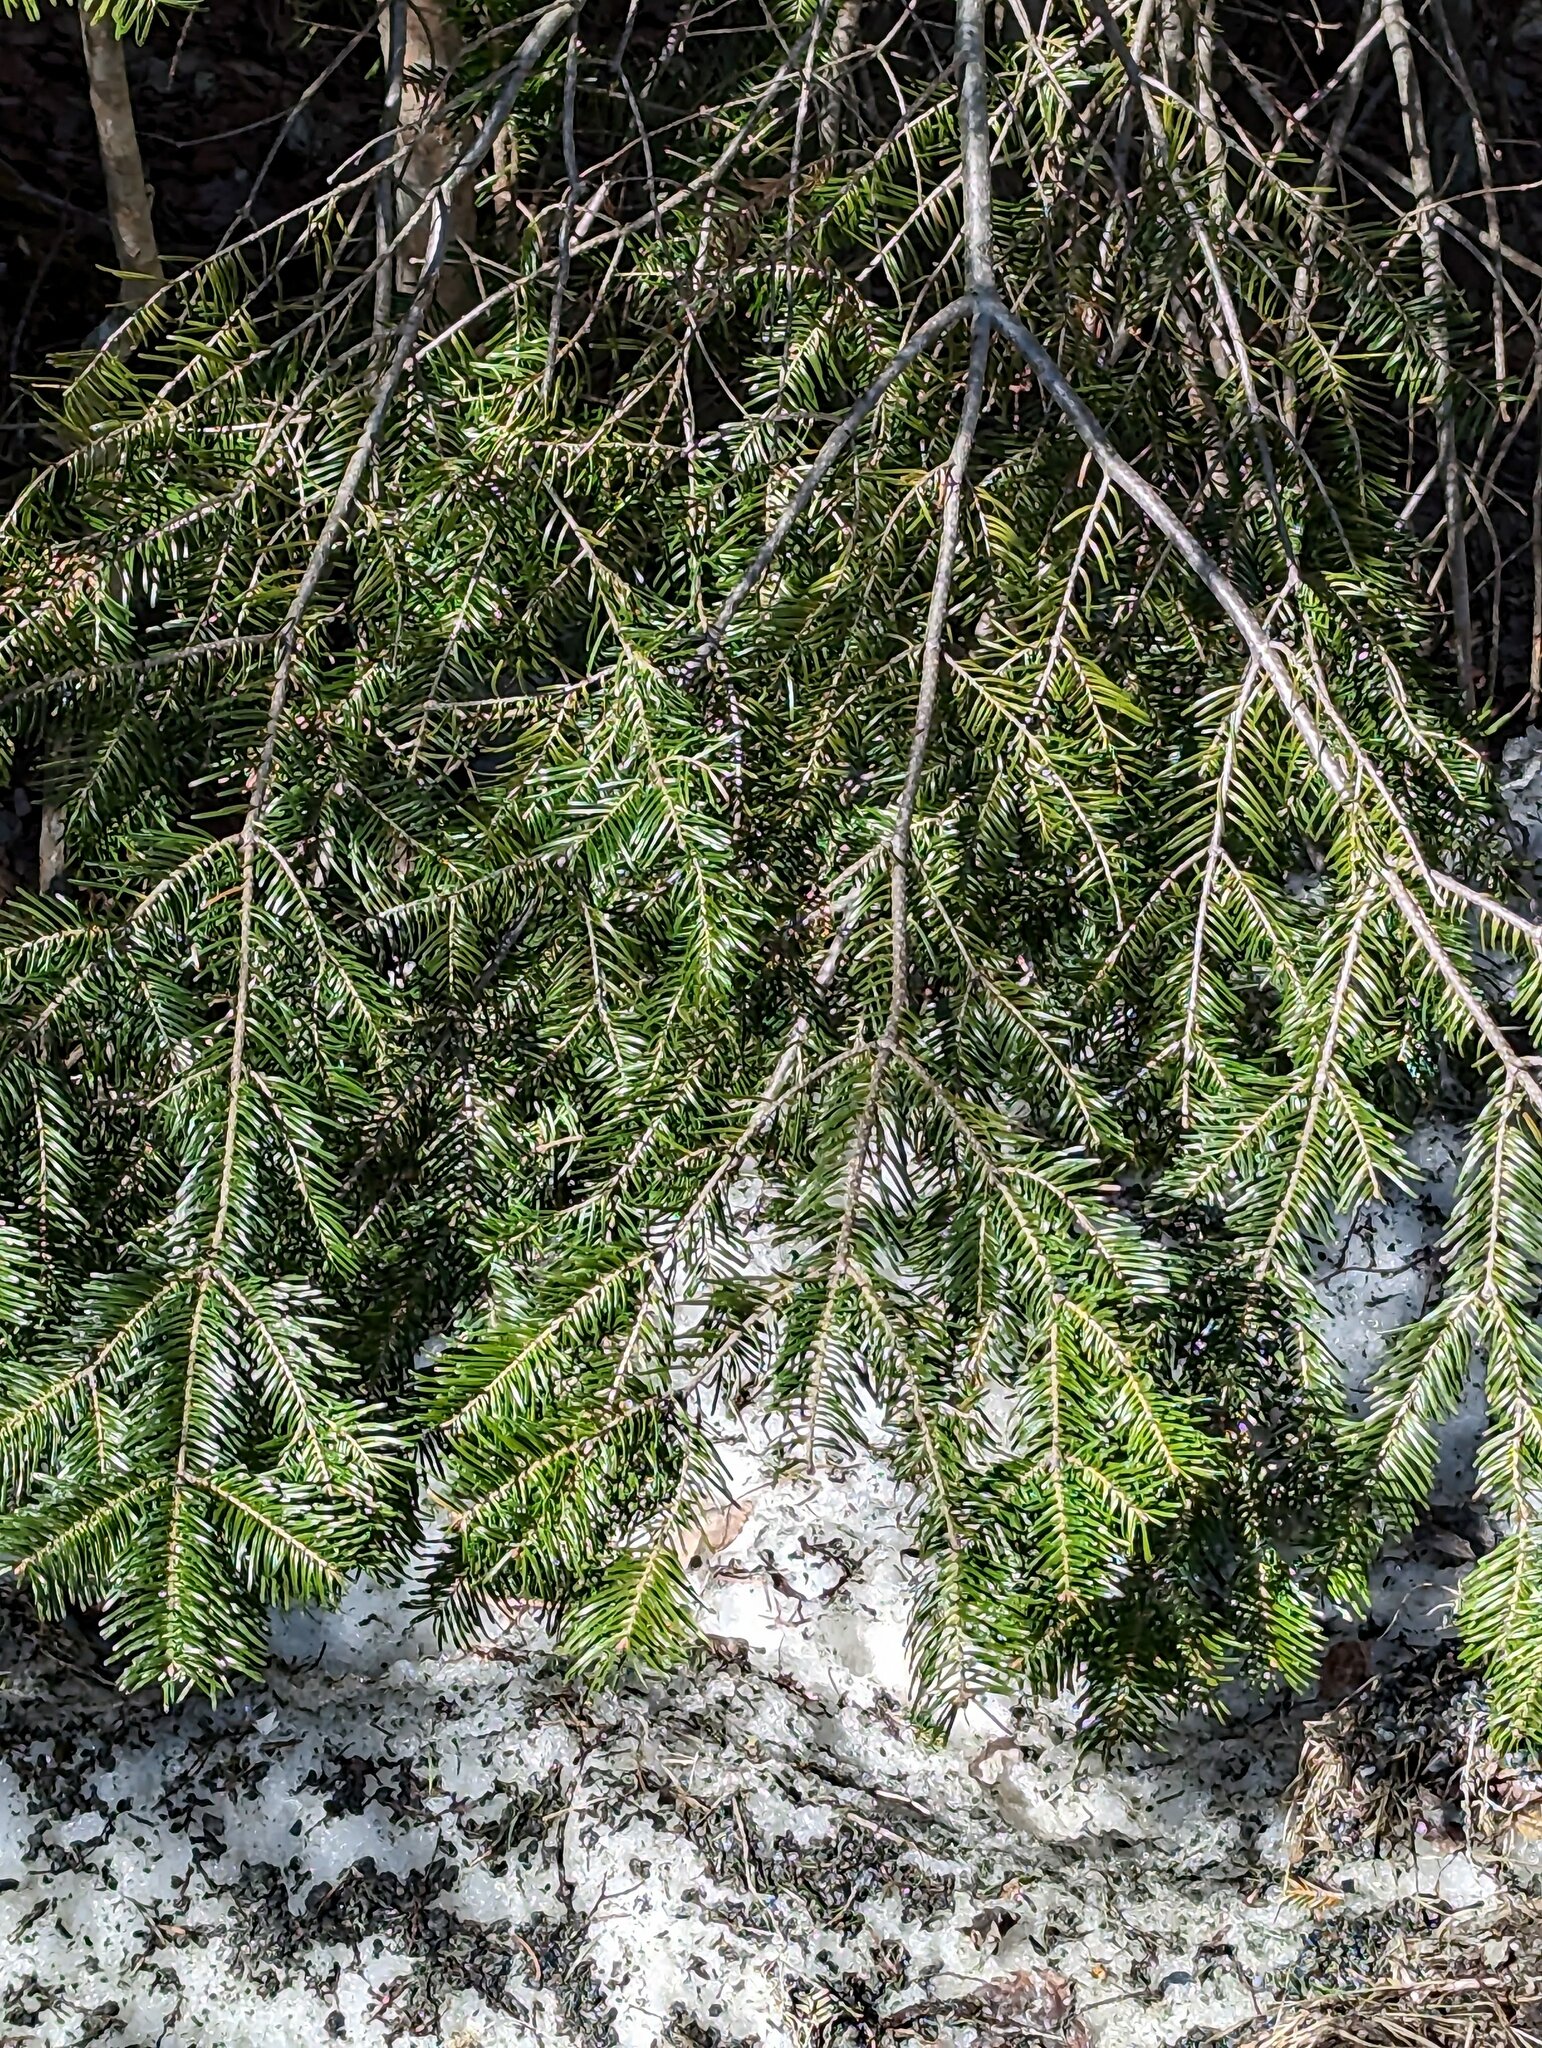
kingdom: Plantae
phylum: Tracheophyta
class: Pinopsida
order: Pinales
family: Pinaceae
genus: Abies
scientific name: Abies balsamea
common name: Balsam fir
